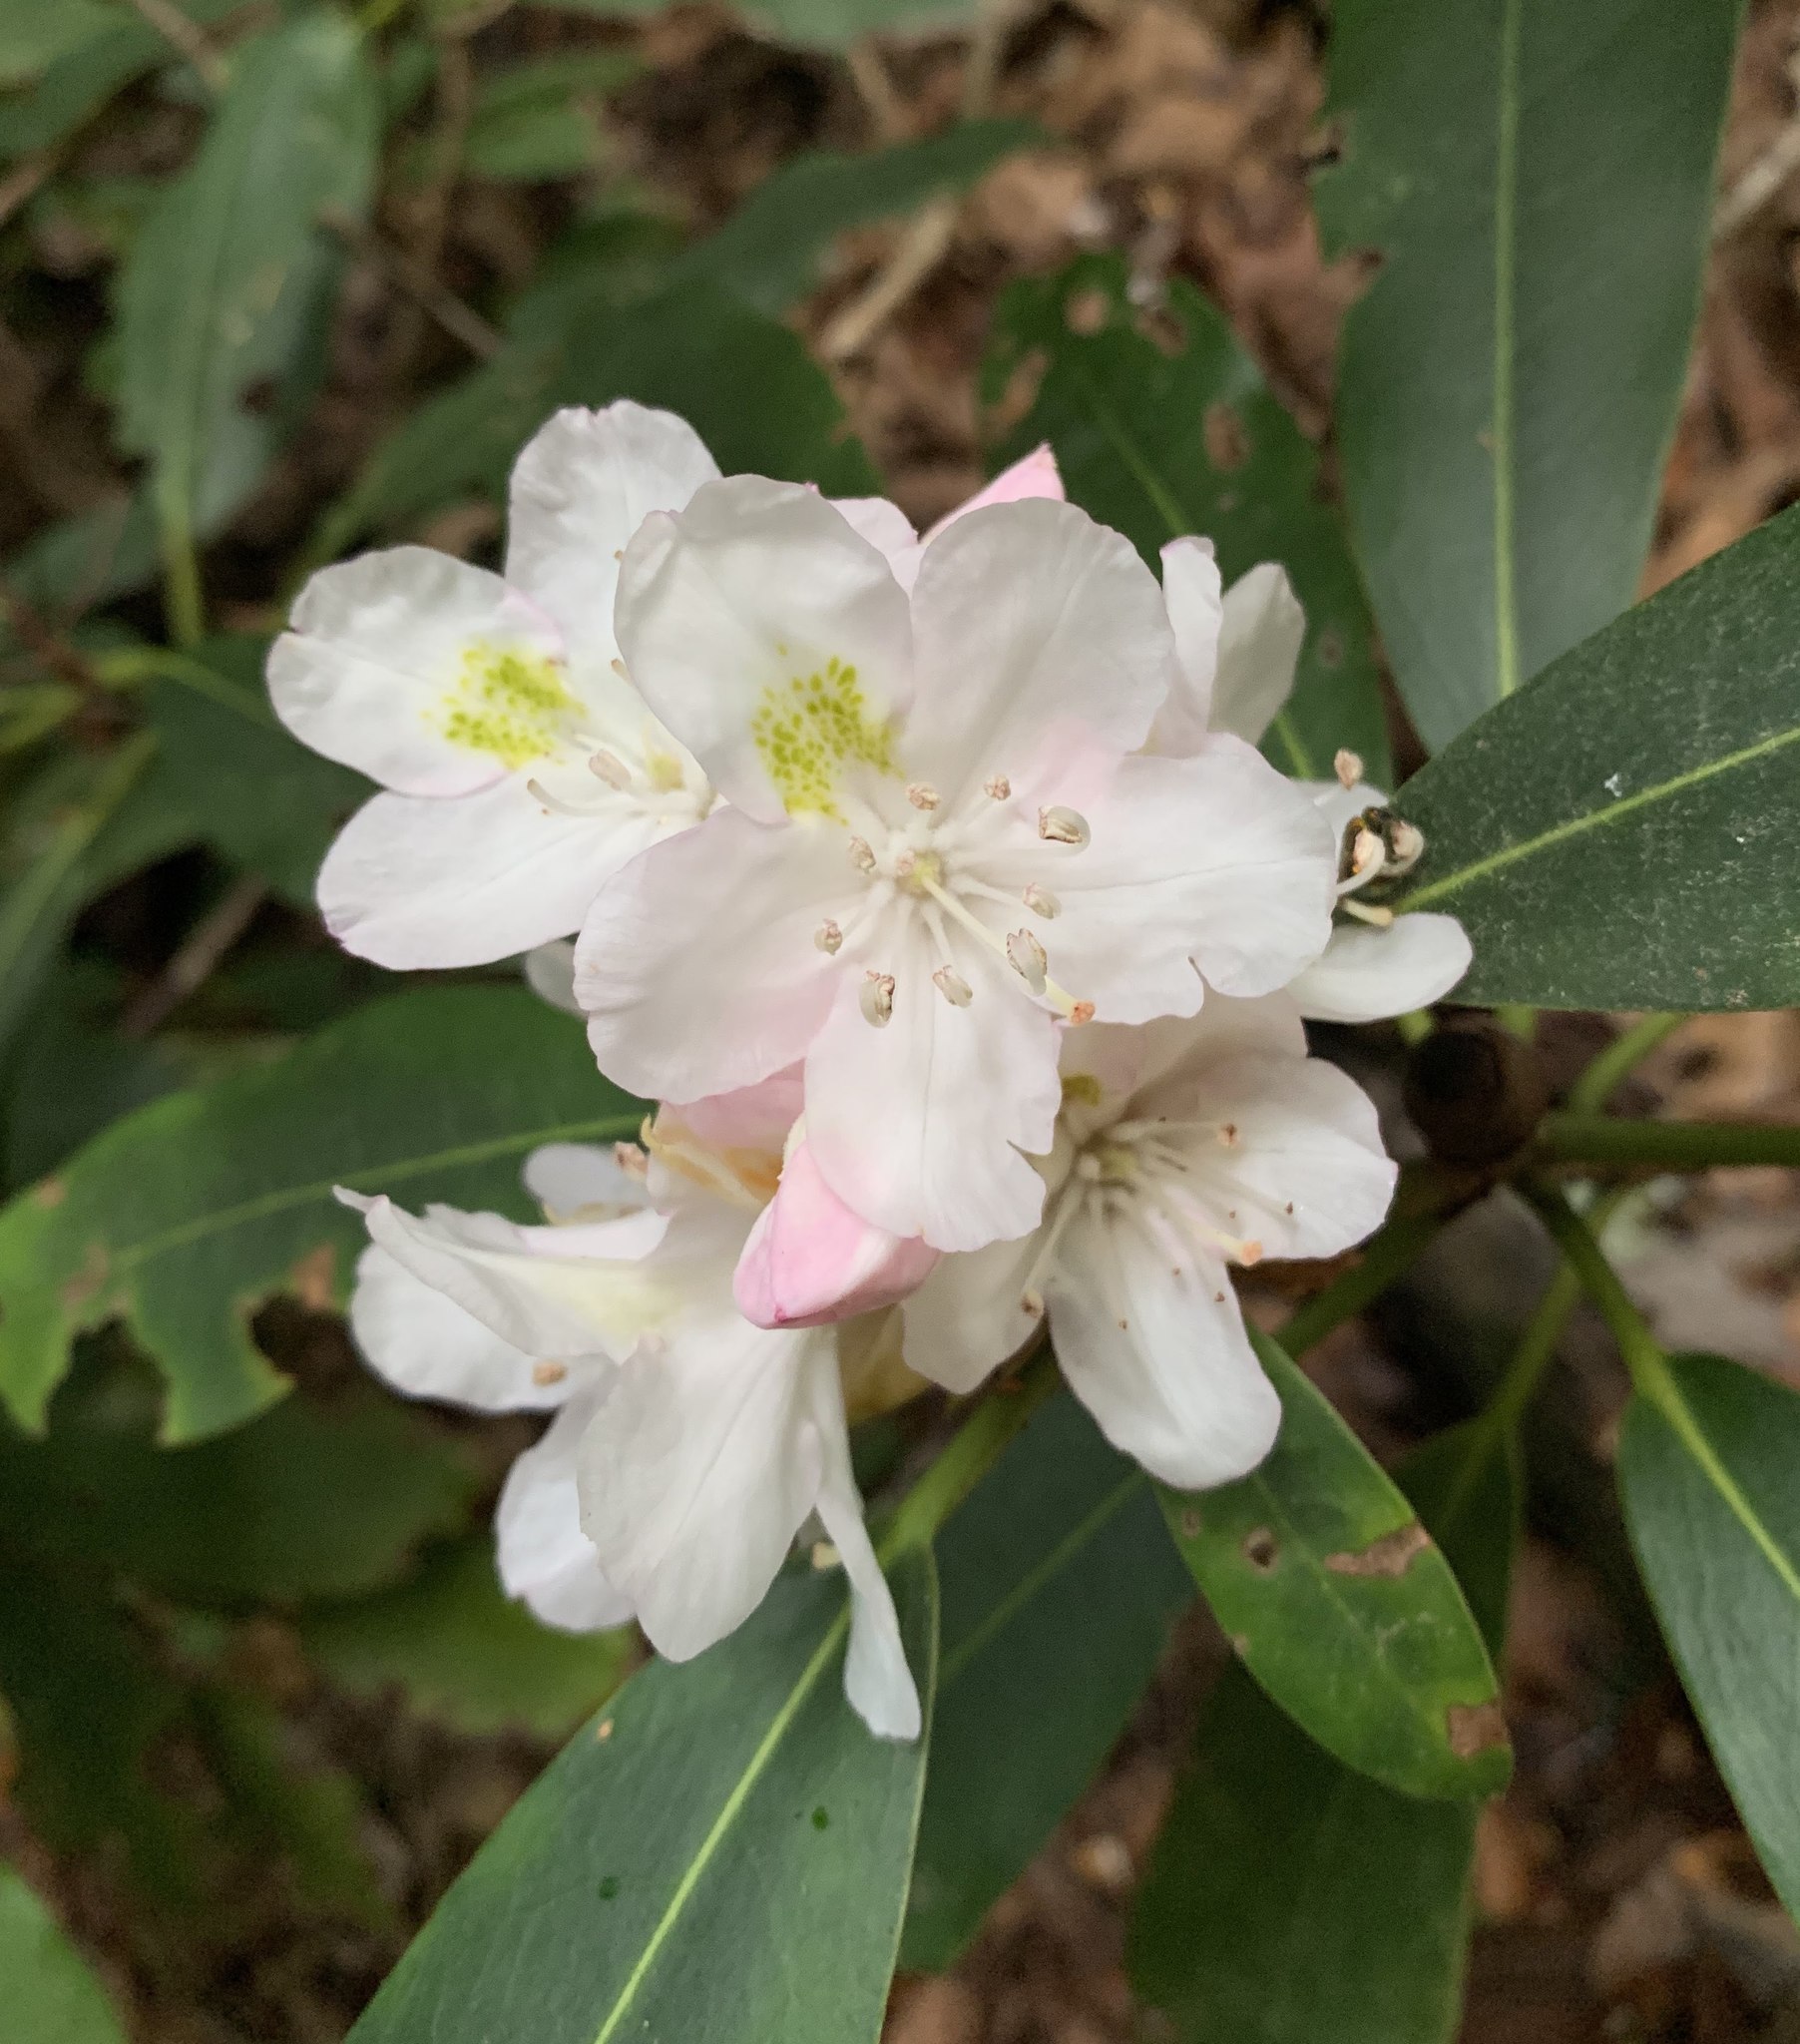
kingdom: Plantae
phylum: Tracheophyta
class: Magnoliopsida
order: Ericales
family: Ericaceae
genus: Rhododendron
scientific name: Rhododendron maximum
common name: Great rhododendron
